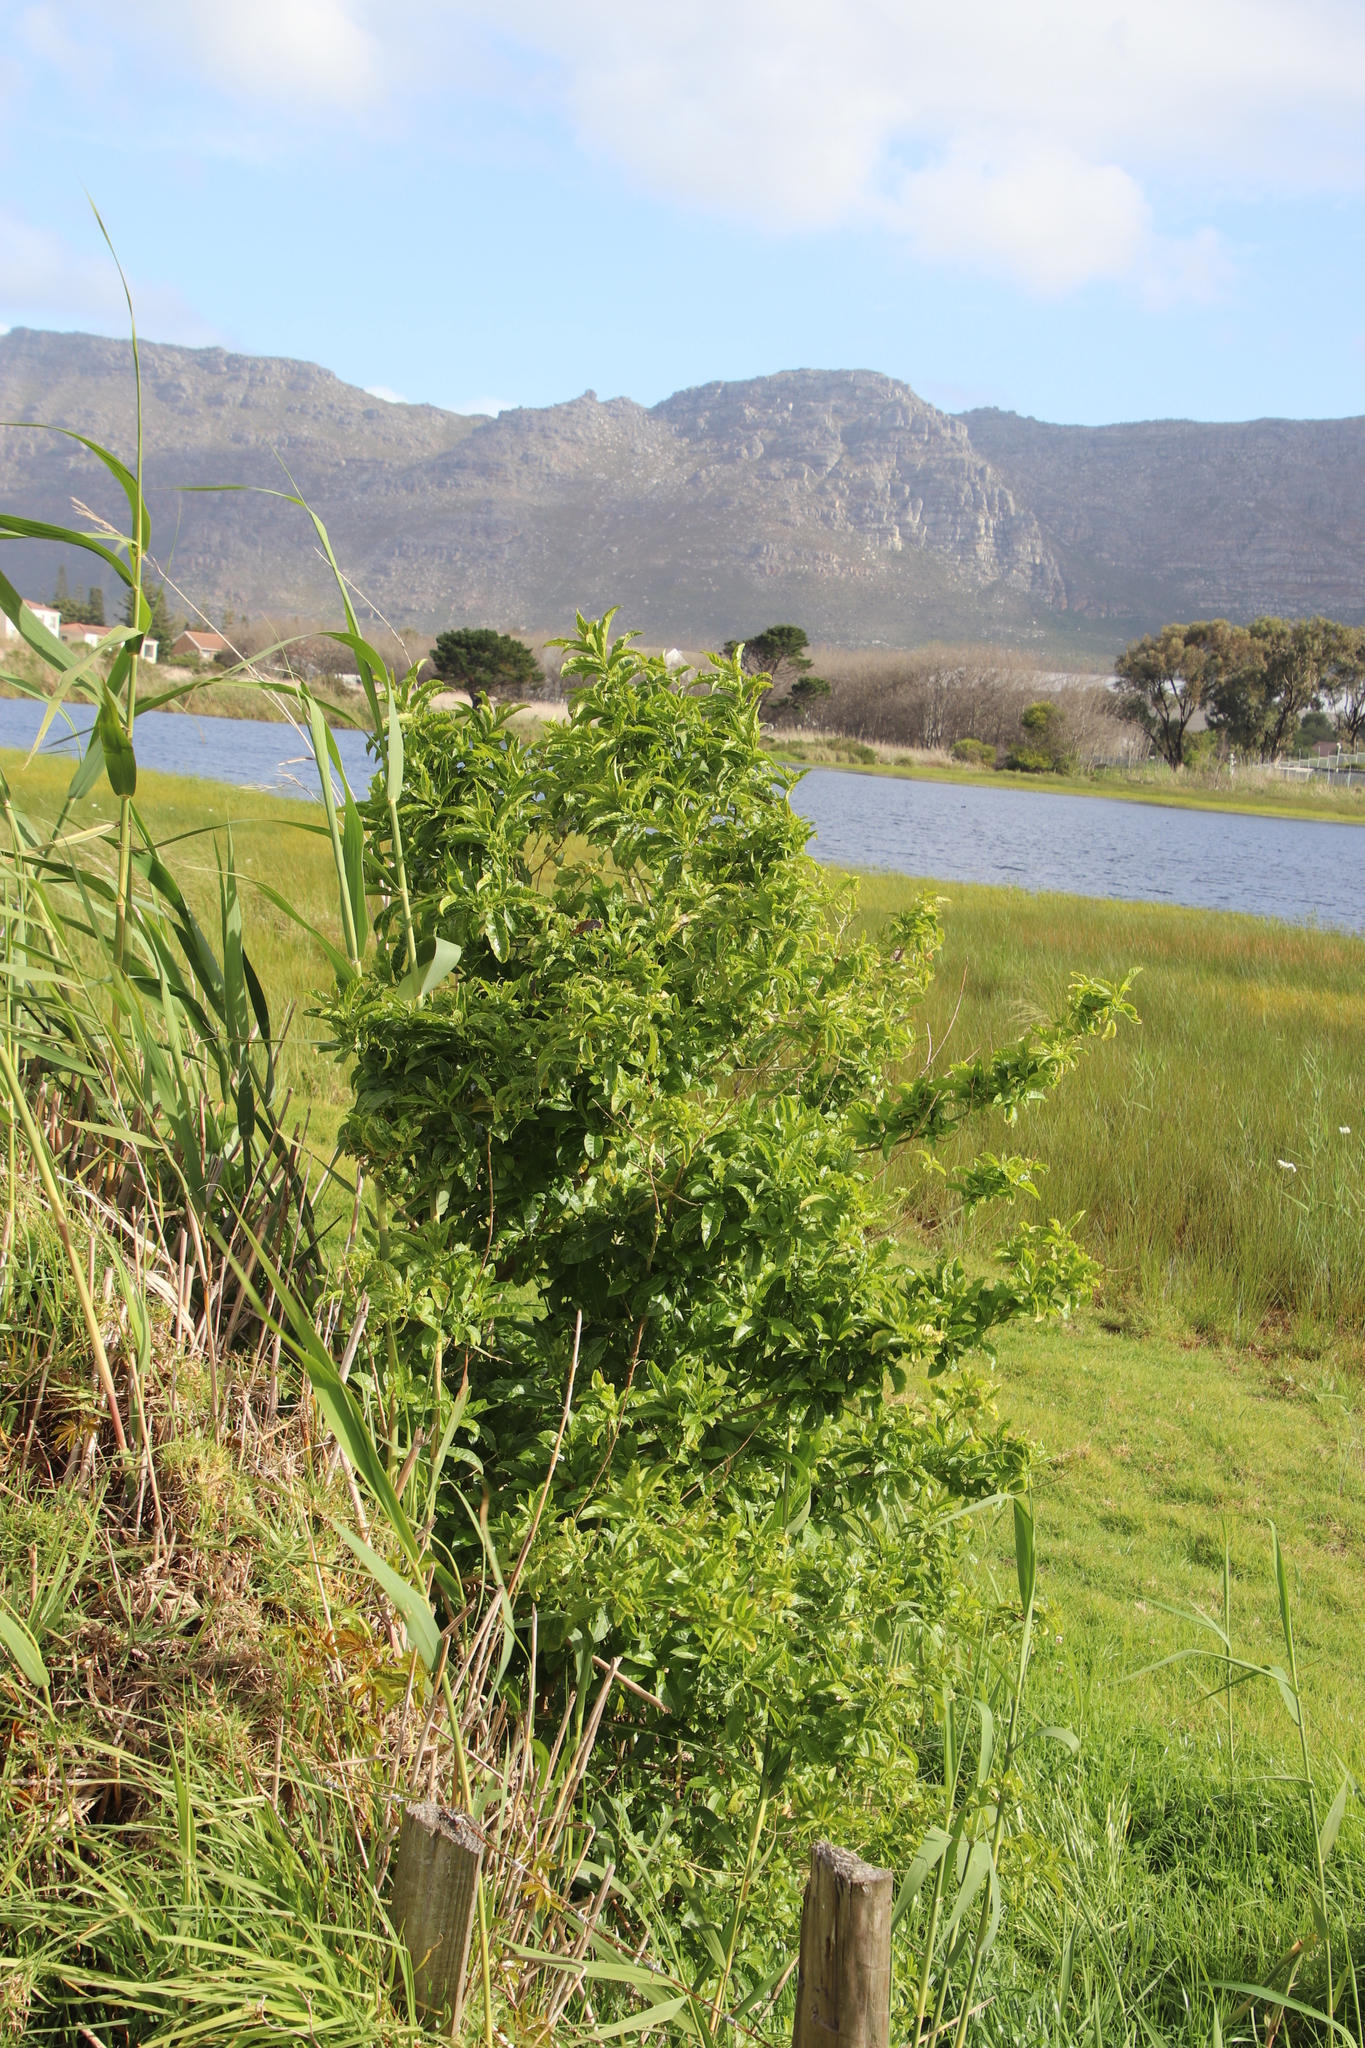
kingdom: Plantae
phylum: Tracheophyta
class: Magnoliopsida
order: Solanales
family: Solanaceae
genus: Cestrum
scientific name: Cestrum laevigatum
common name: Inkberry
